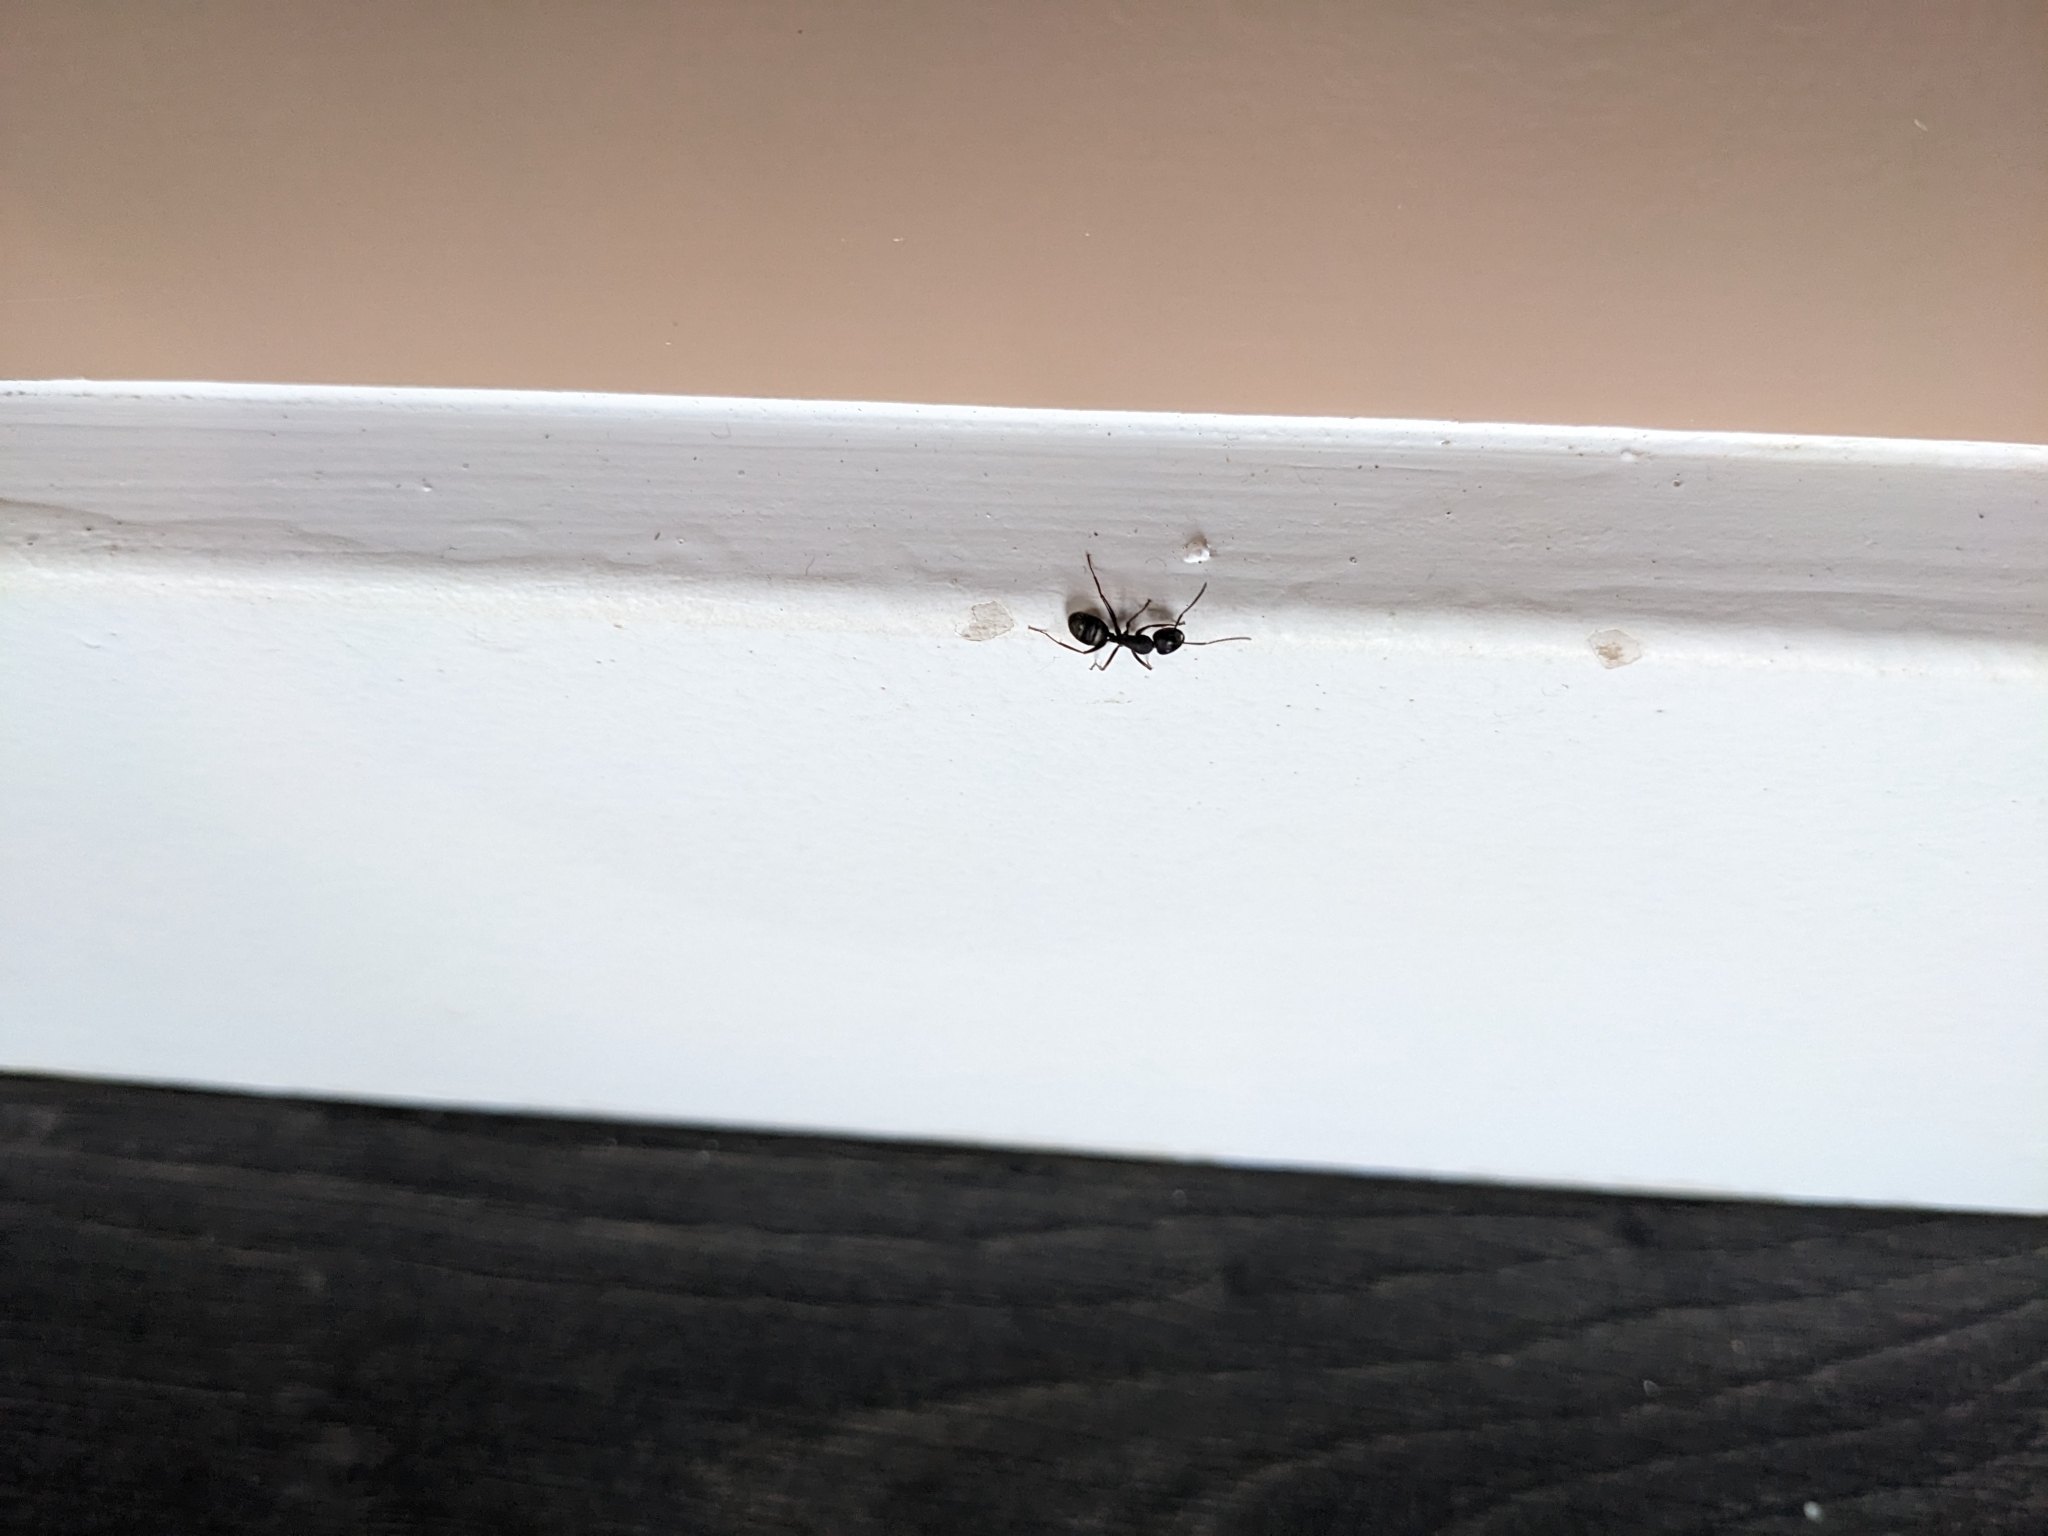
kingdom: Animalia
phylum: Arthropoda
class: Insecta
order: Hymenoptera
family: Formicidae
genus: Camponotus
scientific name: Camponotus modoc
